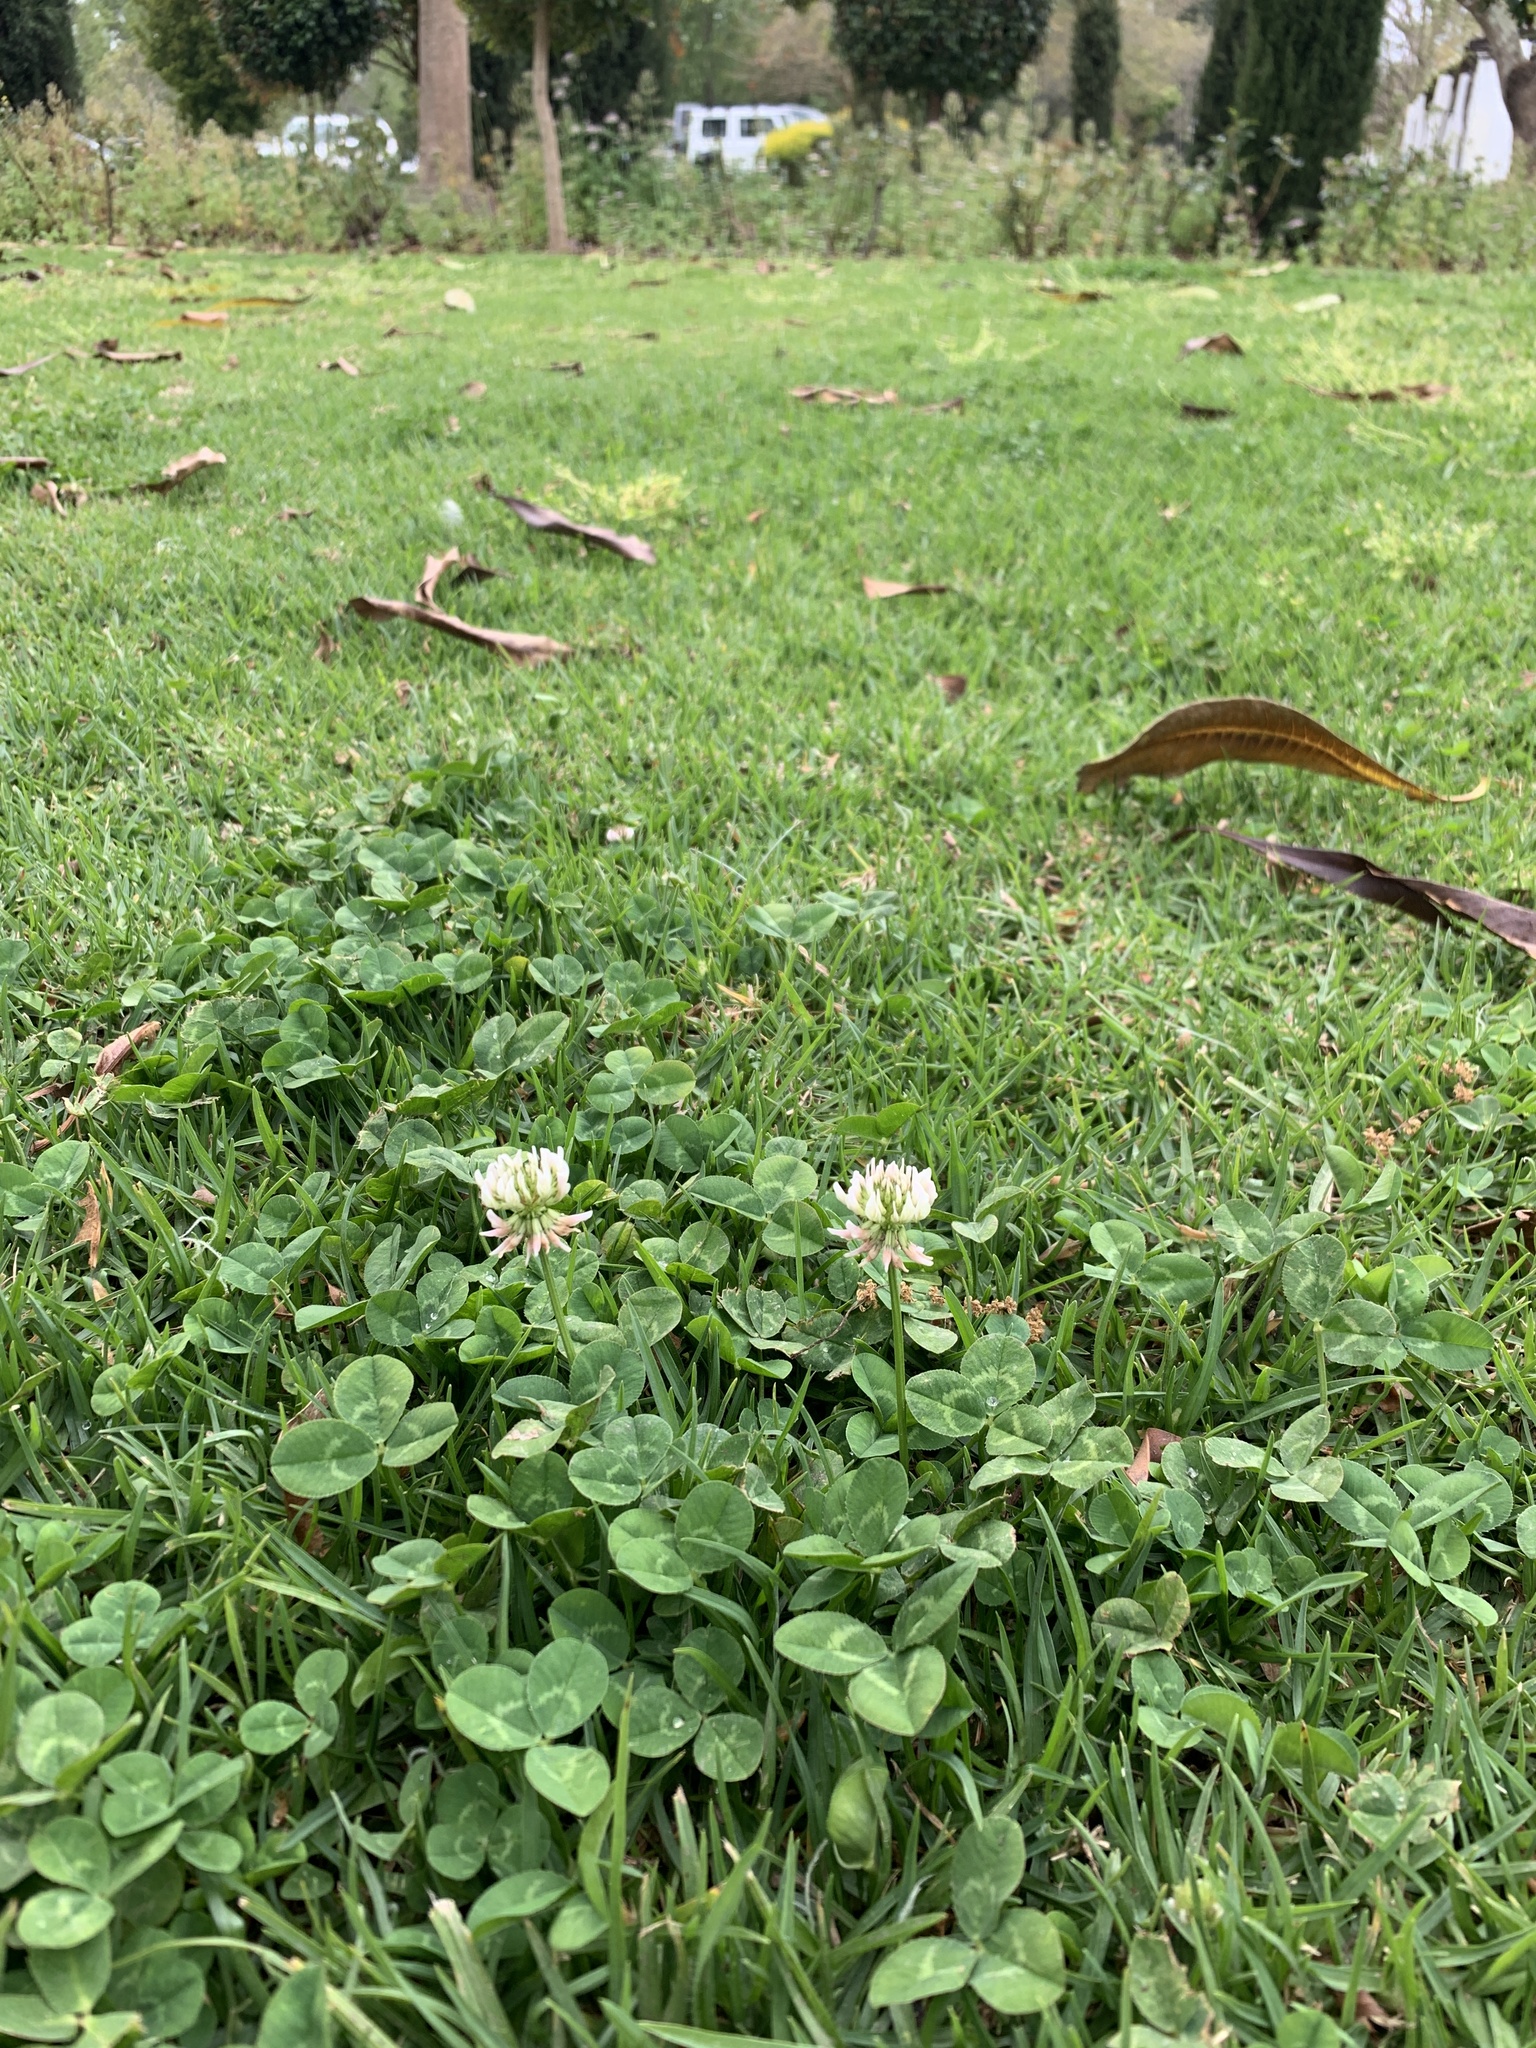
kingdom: Plantae
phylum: Tracheophyta
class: Magnoliopsida
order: Fabales
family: Fabaceae
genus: Trifolium
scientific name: Trifolium repens
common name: White clover
